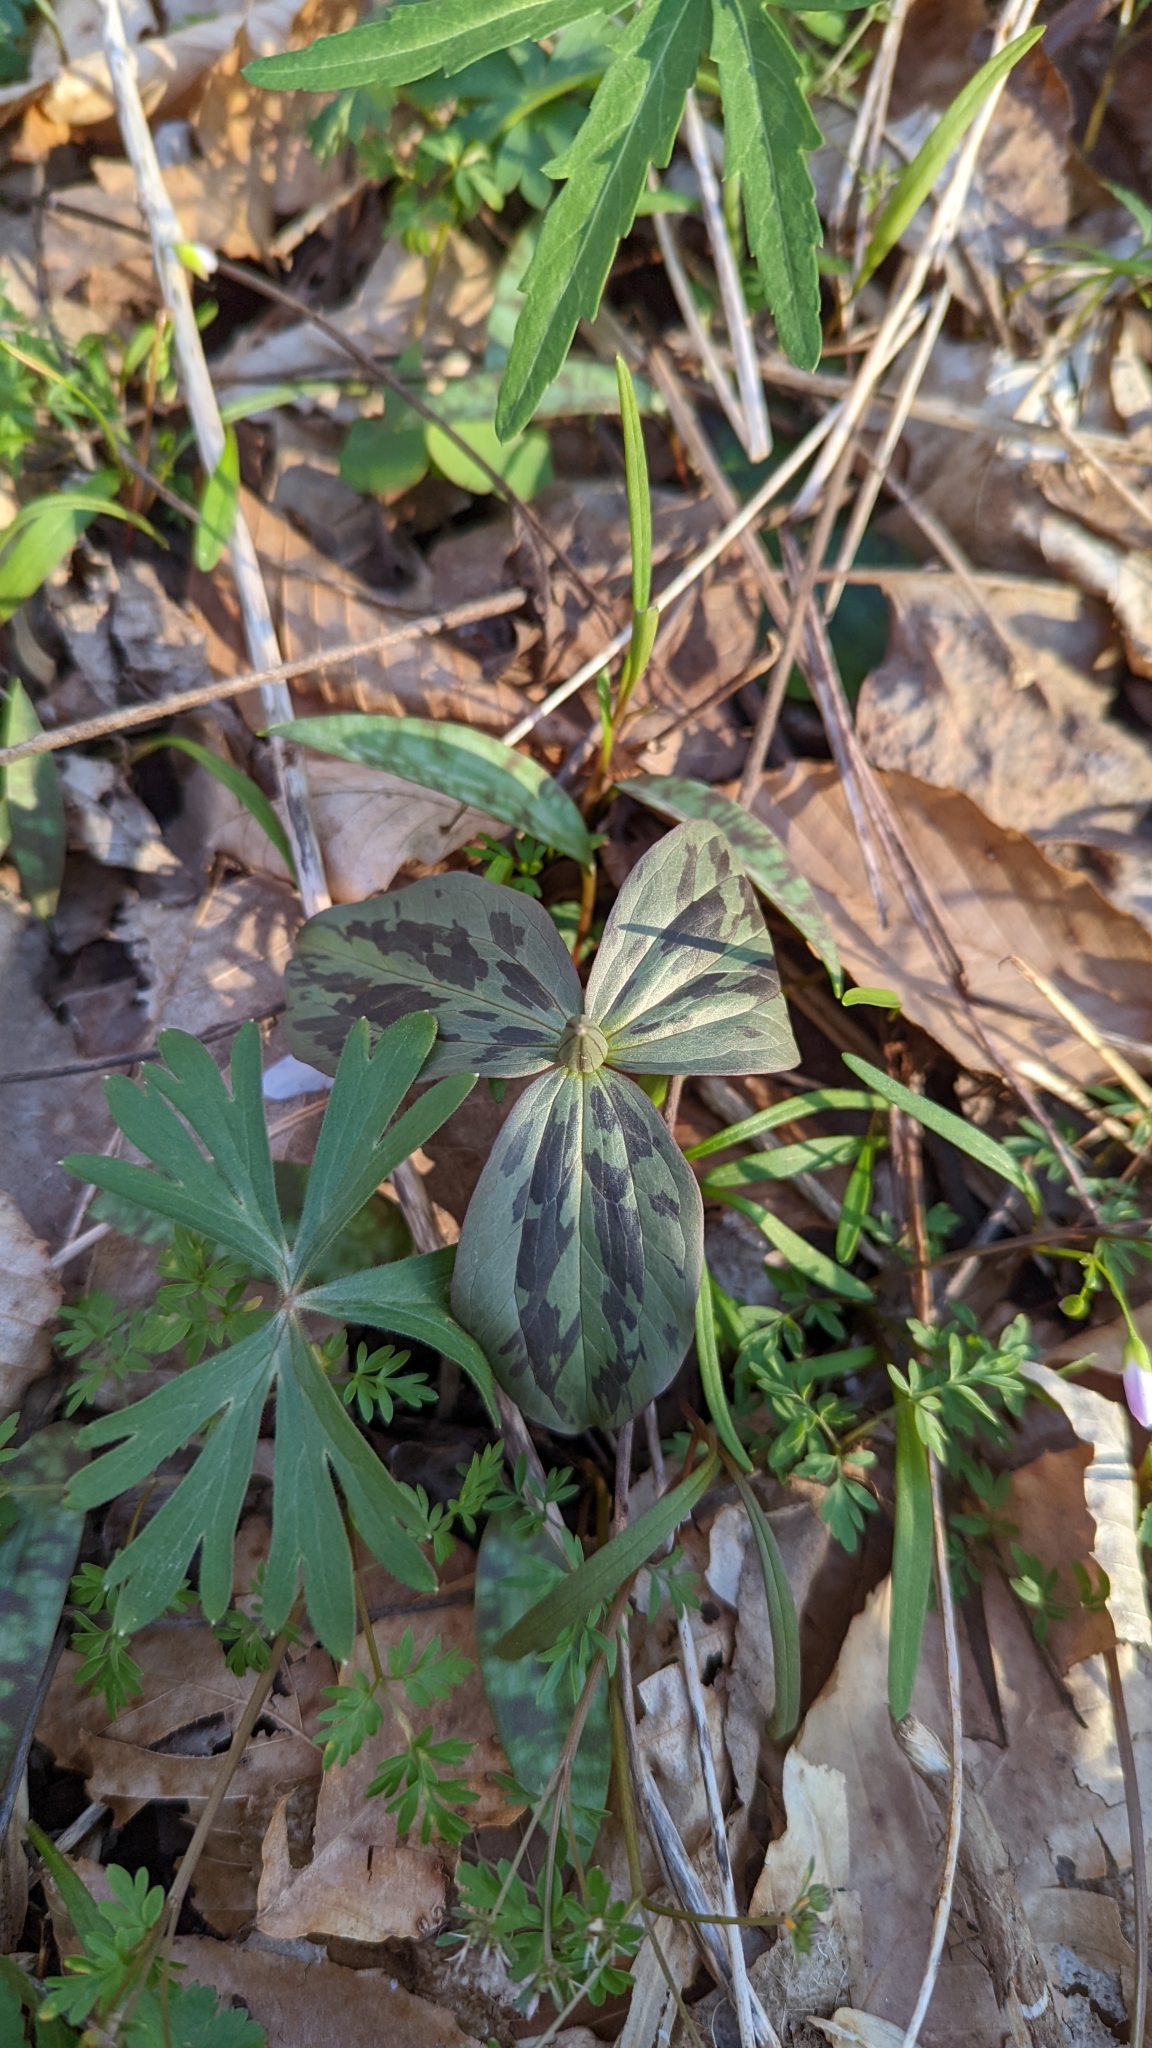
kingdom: Plantae
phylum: Tracheophyta
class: Liliopsida
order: Liliales
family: Melanthiaceae
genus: Trillium
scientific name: Trillium sessile
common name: Sessile trillium
